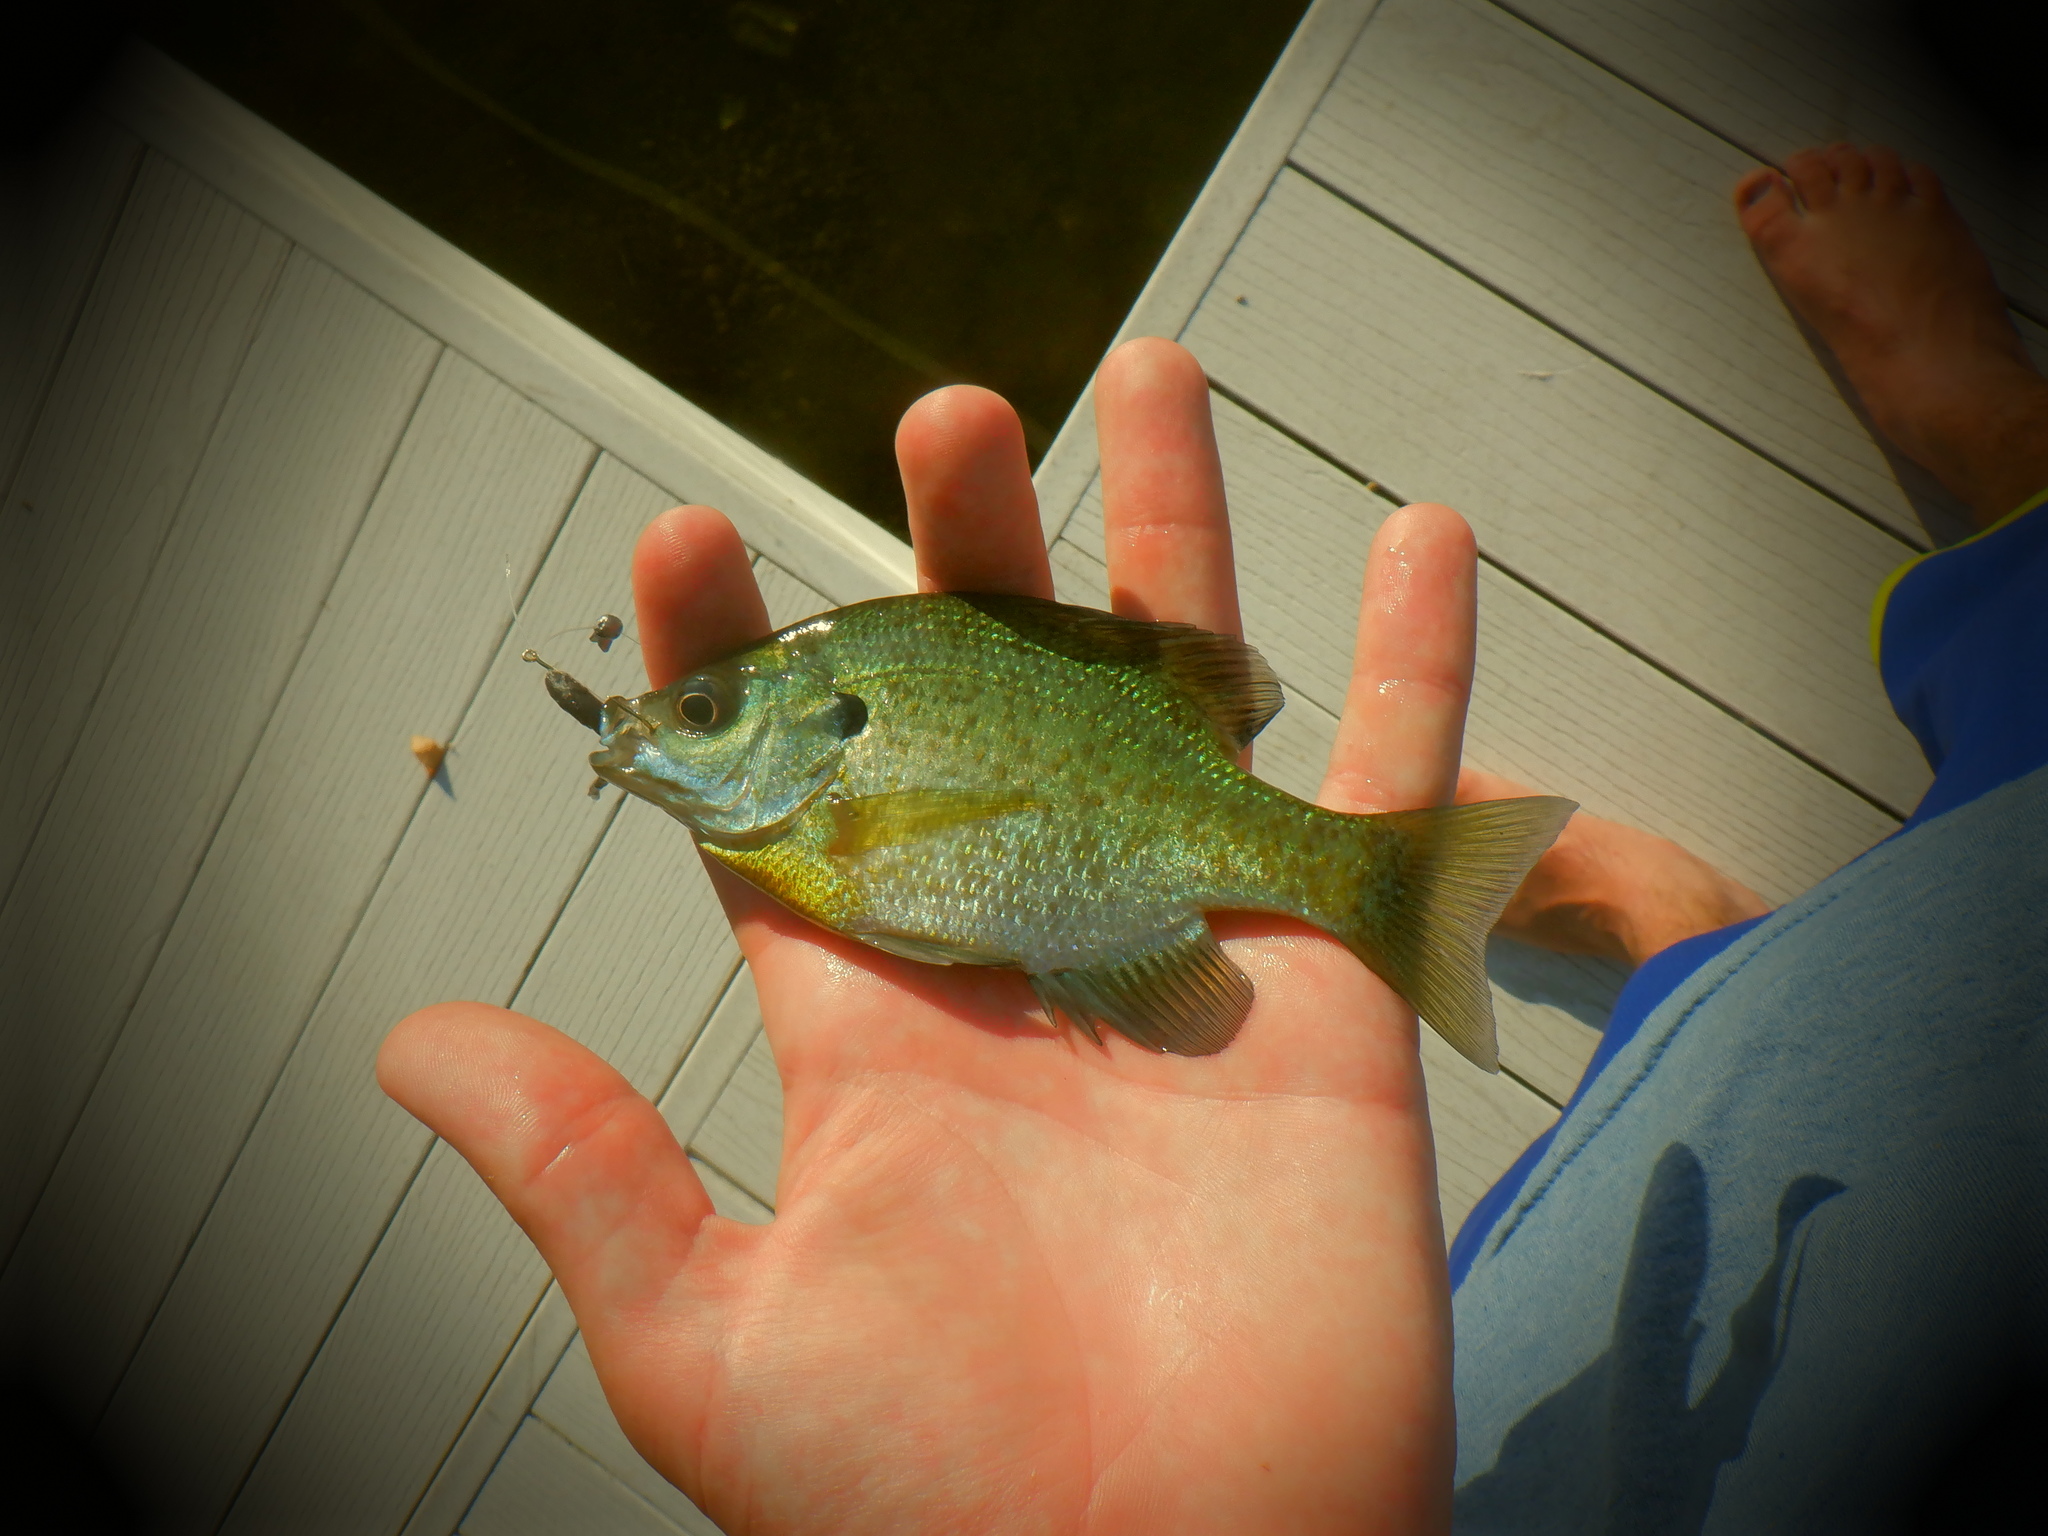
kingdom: Animalia
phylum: Chordata
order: Perciformes
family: Centrarchidae
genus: Lepomis
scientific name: Lepomis macrochirus
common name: Bluegill
